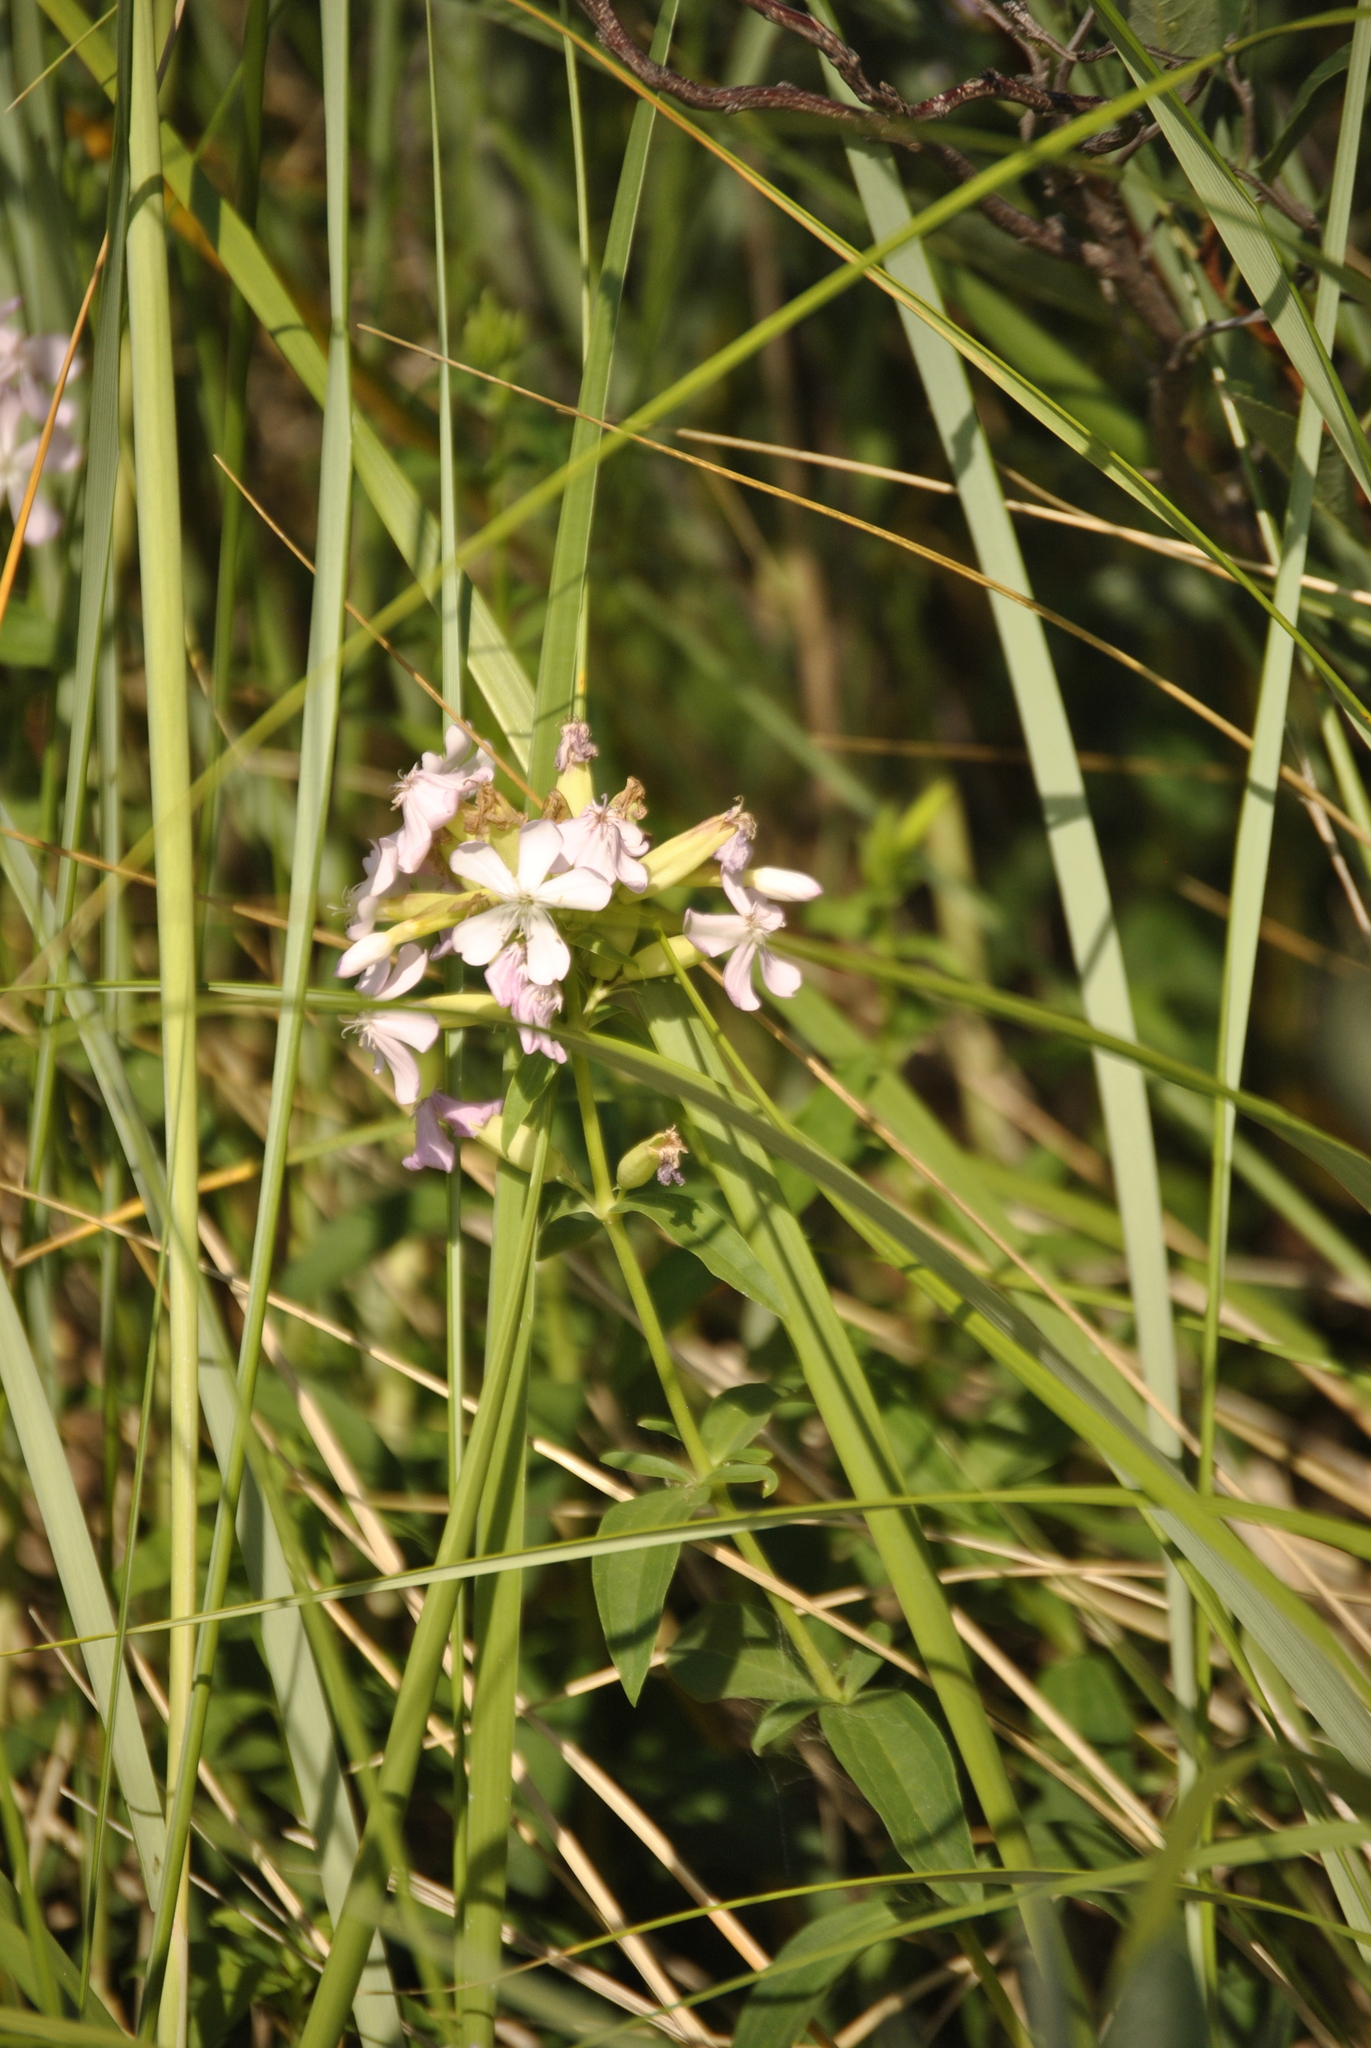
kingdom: Plantae
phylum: Tracheophyta
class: Magnoliopsida
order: Caryophyllales
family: Caryophyllaceae
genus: Saponaria
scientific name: Saponaria officinalis
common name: Soapwort
